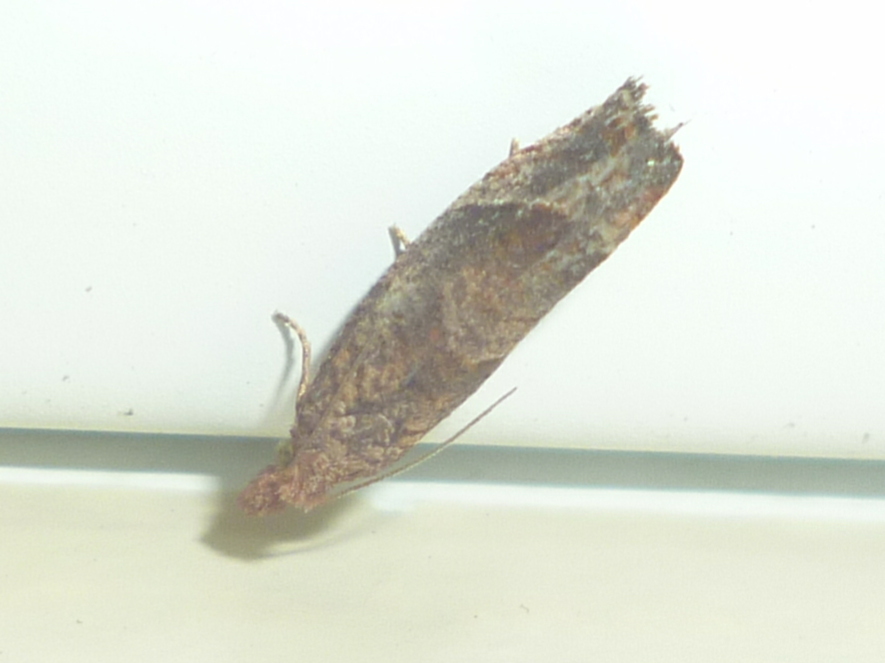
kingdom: Animalia
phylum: Arthropoda
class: Insecta
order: Lepidoptera
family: Tortricidae
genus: Pelochrista
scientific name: Pelochrista derelicta
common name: Derelict pelochrista moth
